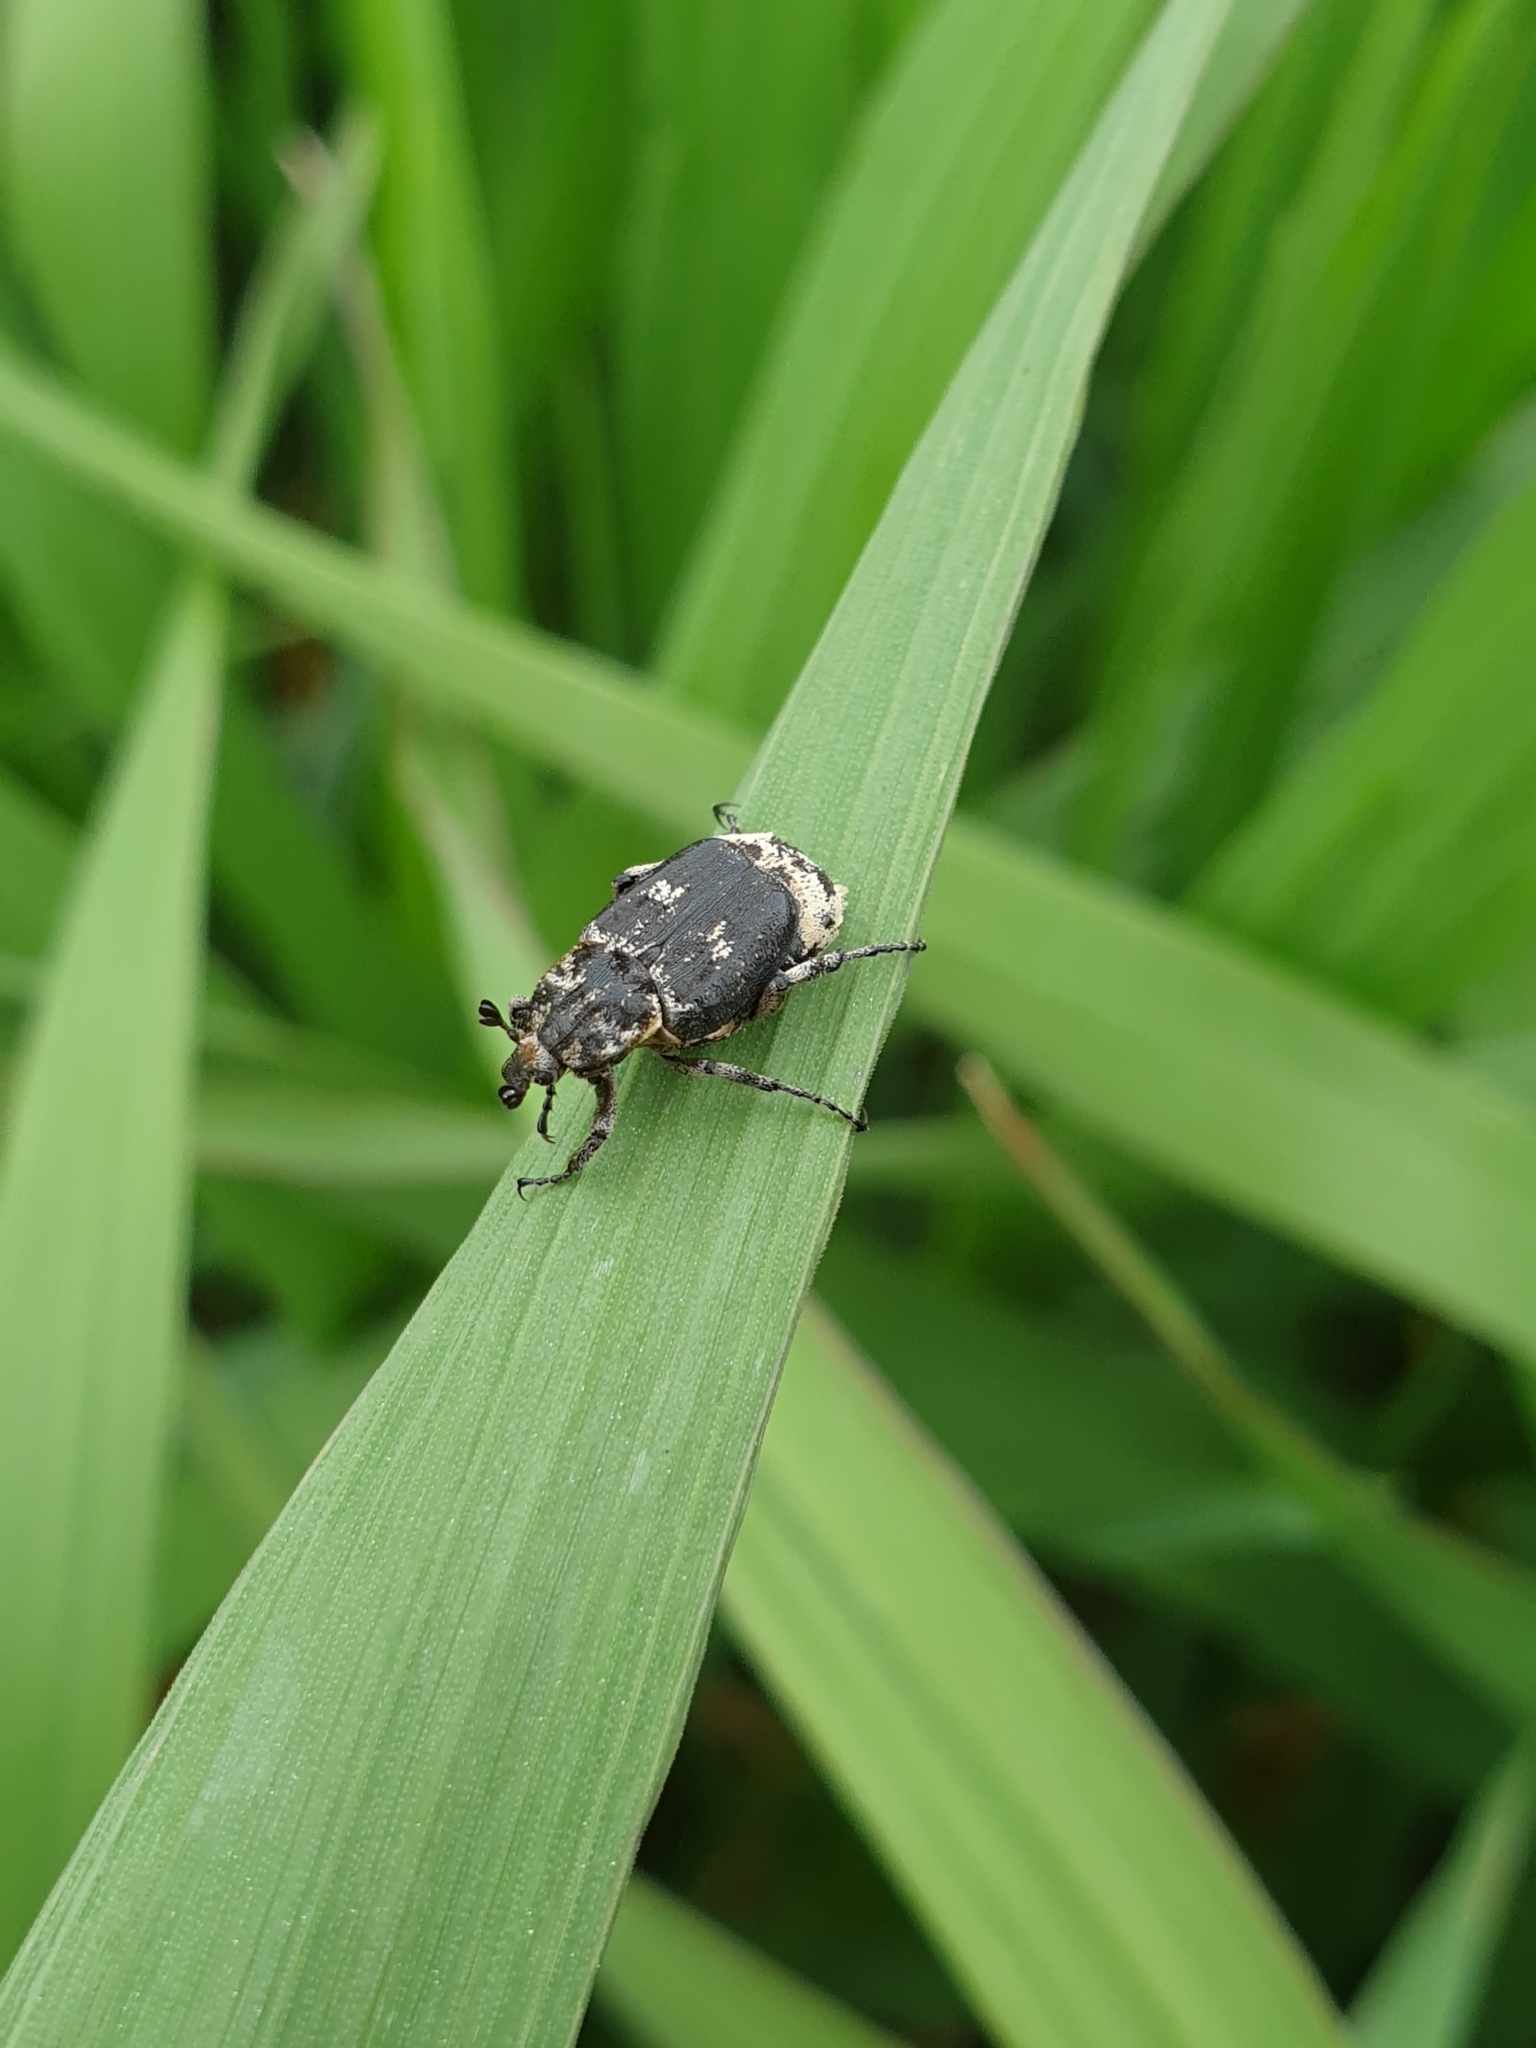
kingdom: Animalia
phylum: Arthropoda
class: Insecta
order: Coleoptera
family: Scarabaeidae
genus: Valgus
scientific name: Valgus hemipterus
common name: Bug flower chafer
